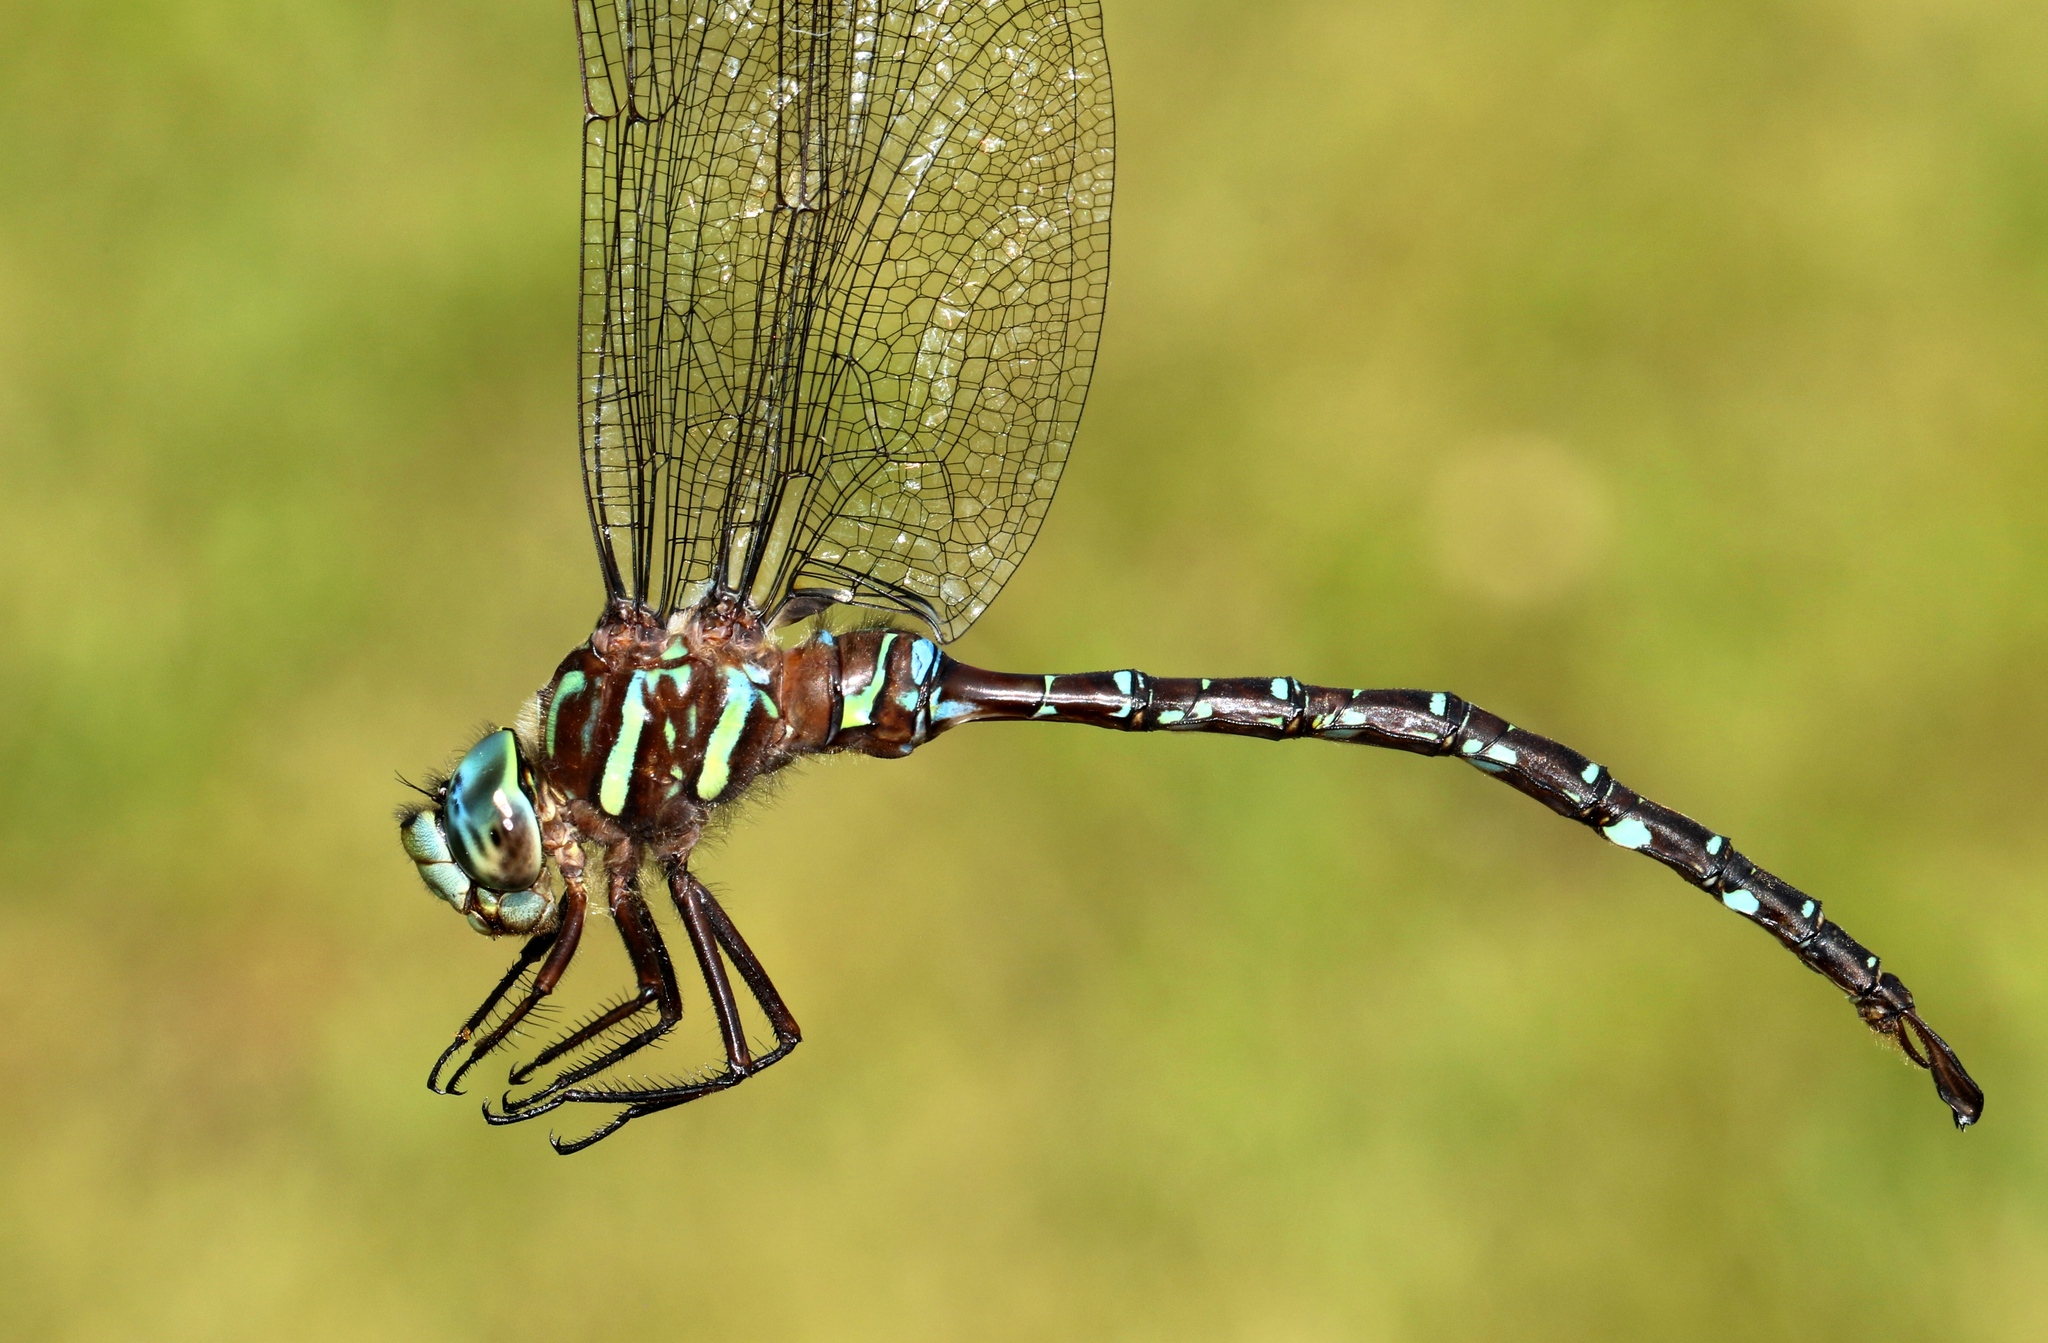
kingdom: Animalia
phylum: Arthropoda
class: Insecta
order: Odonata
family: Aeshnidae
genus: Aeshna
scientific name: Aeshna umbrosa
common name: Shadow darner
